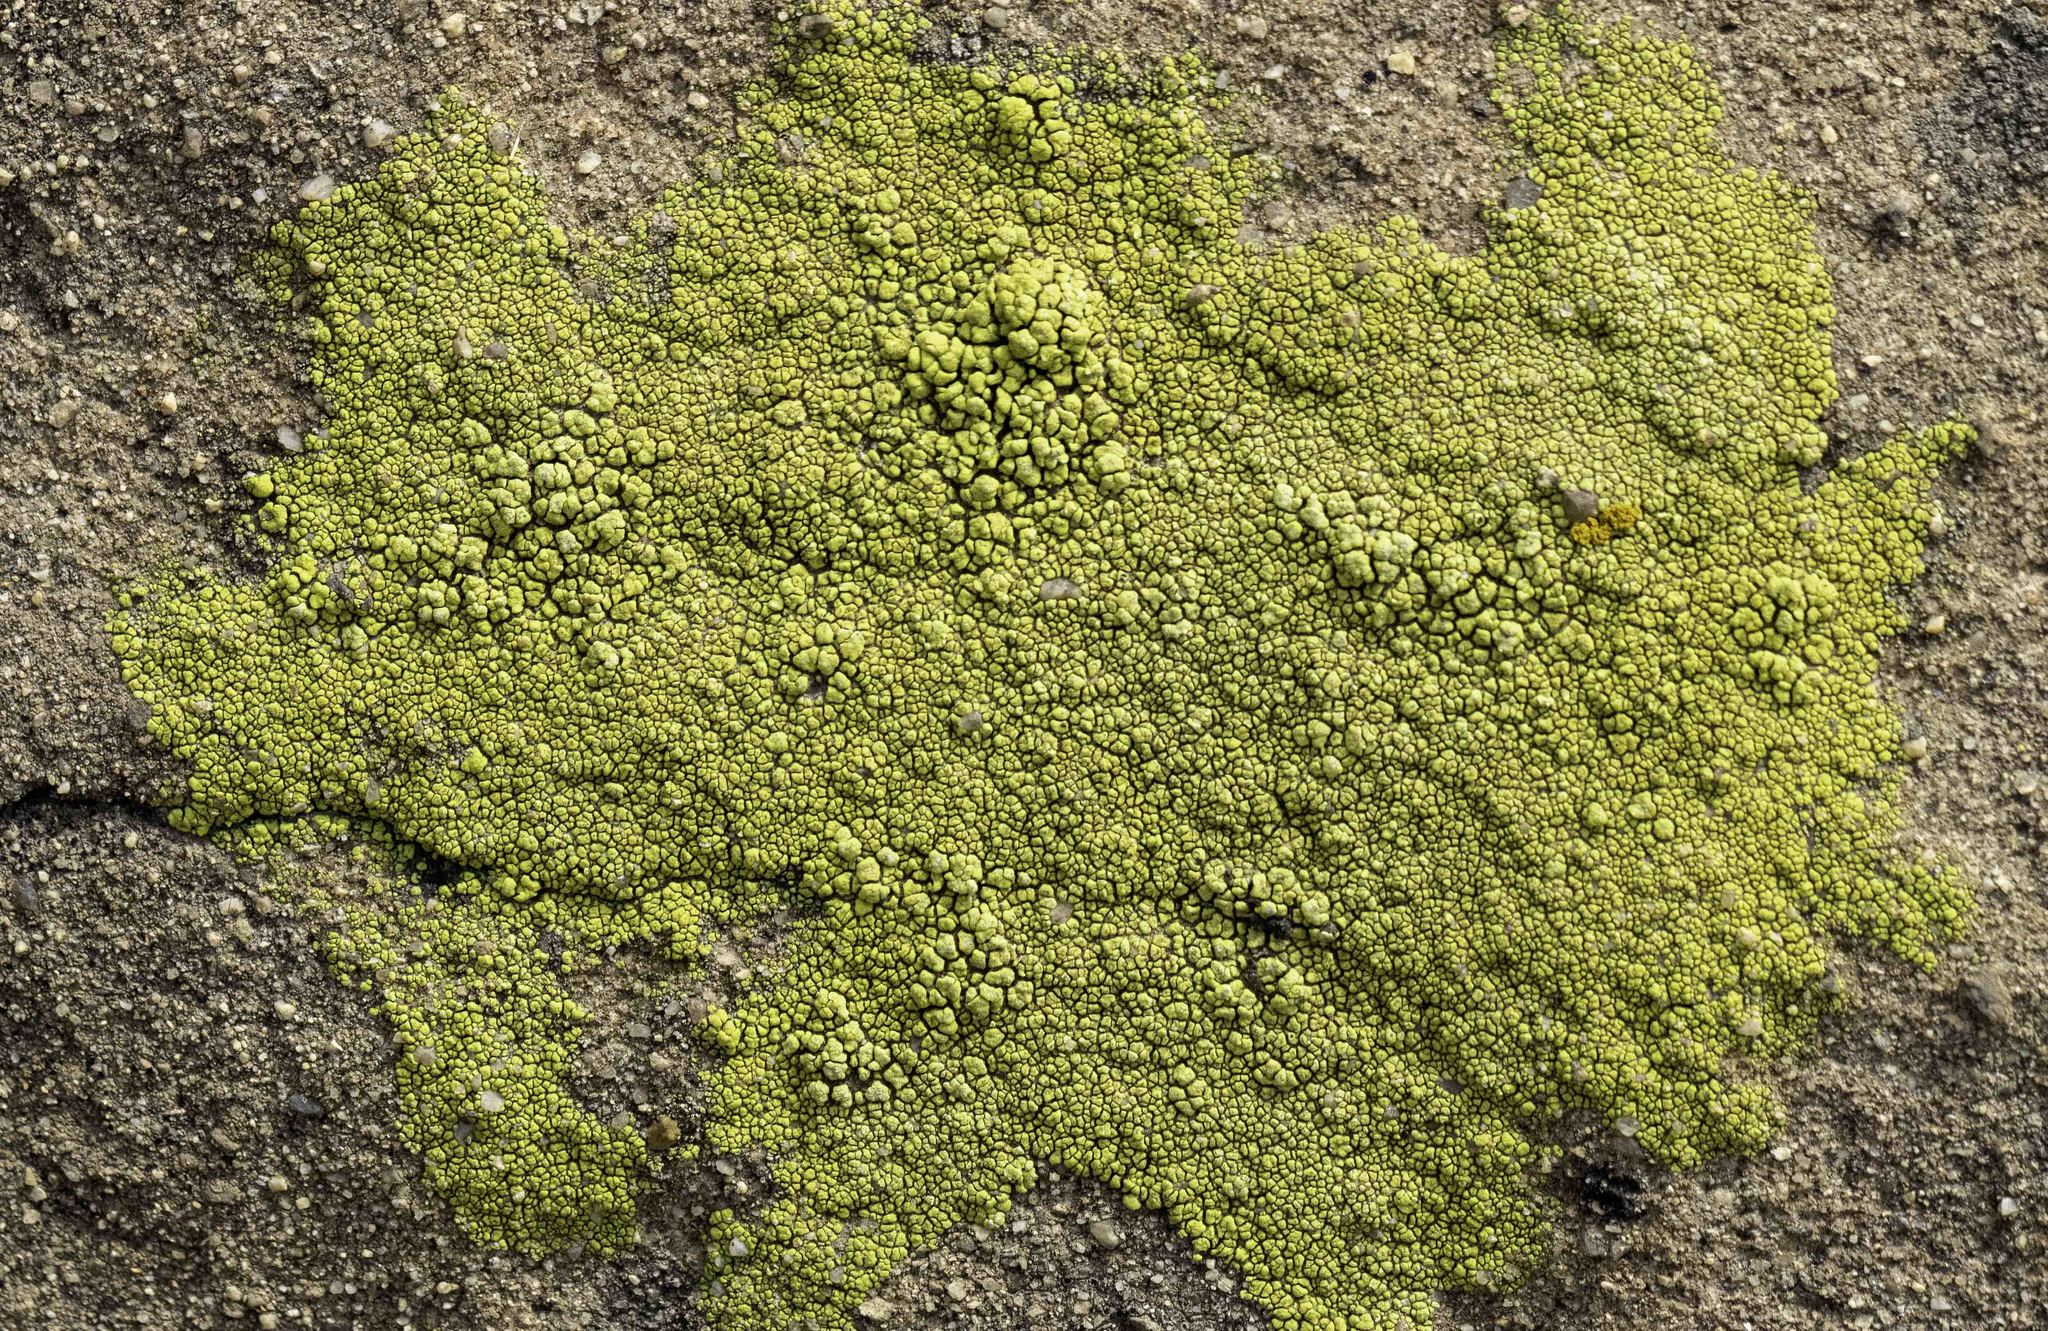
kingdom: Fungi
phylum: Ascomycota
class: Lecanoromycetes
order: Acarosporales
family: Acarosporaceae
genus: Acarospora
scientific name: Acarospora socialis
